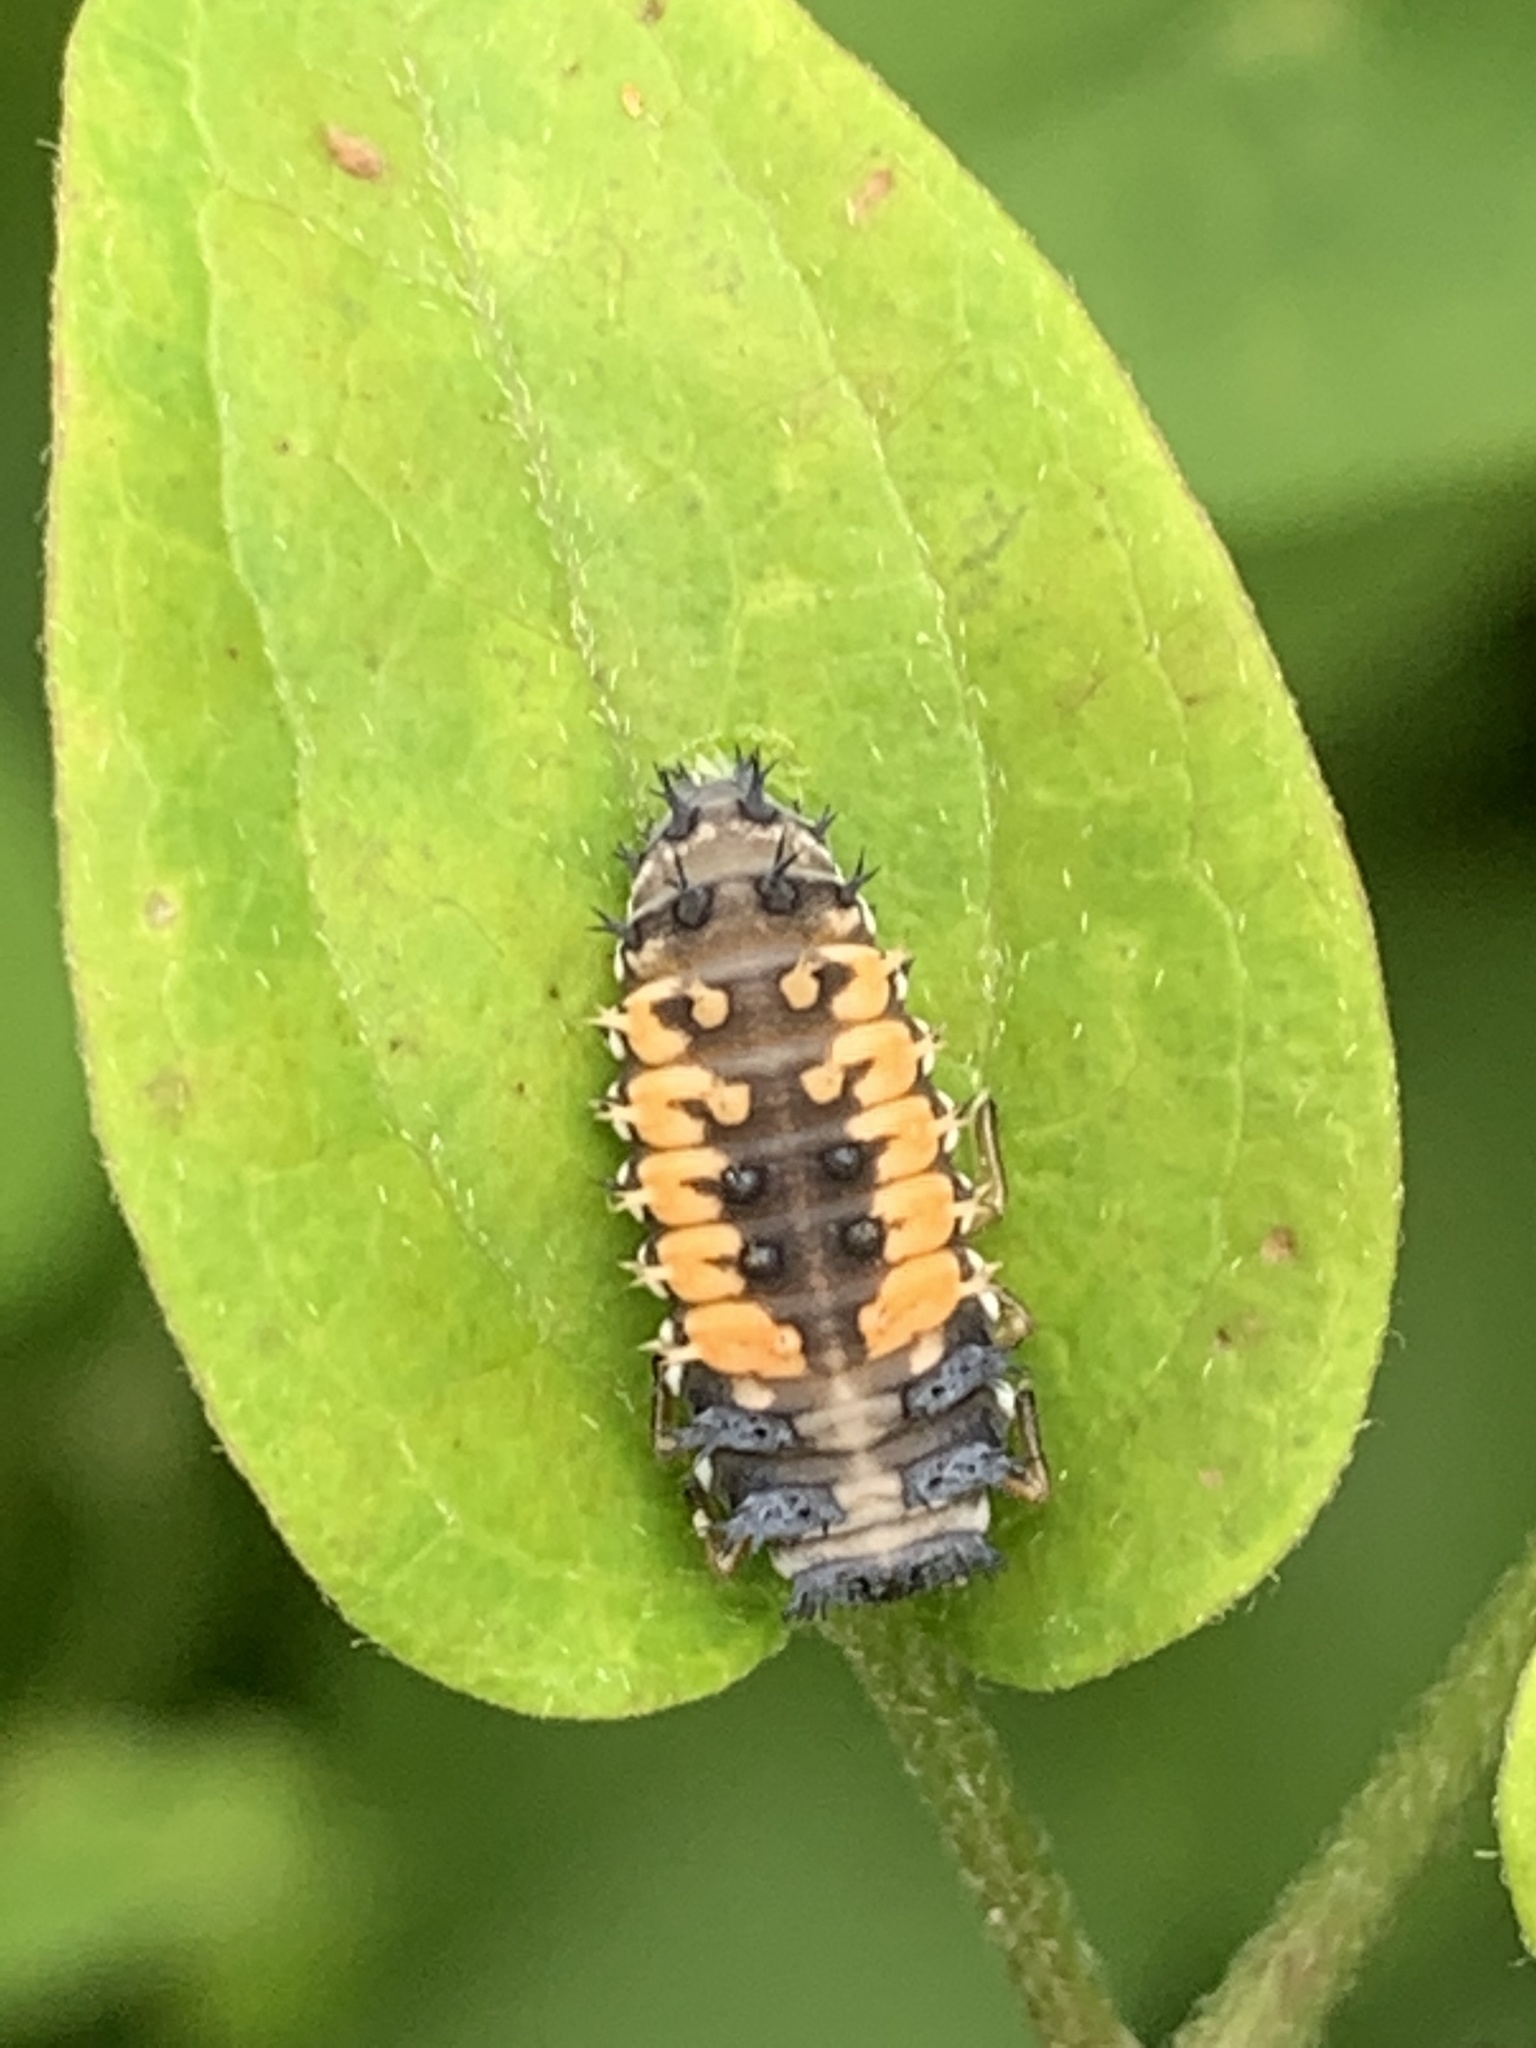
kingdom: Animalia
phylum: Arthropoda
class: Insecta
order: Coleoptera
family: Coccinellidae
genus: Harmonia
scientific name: Harmonia axyridis
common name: Harlequin ladybird
